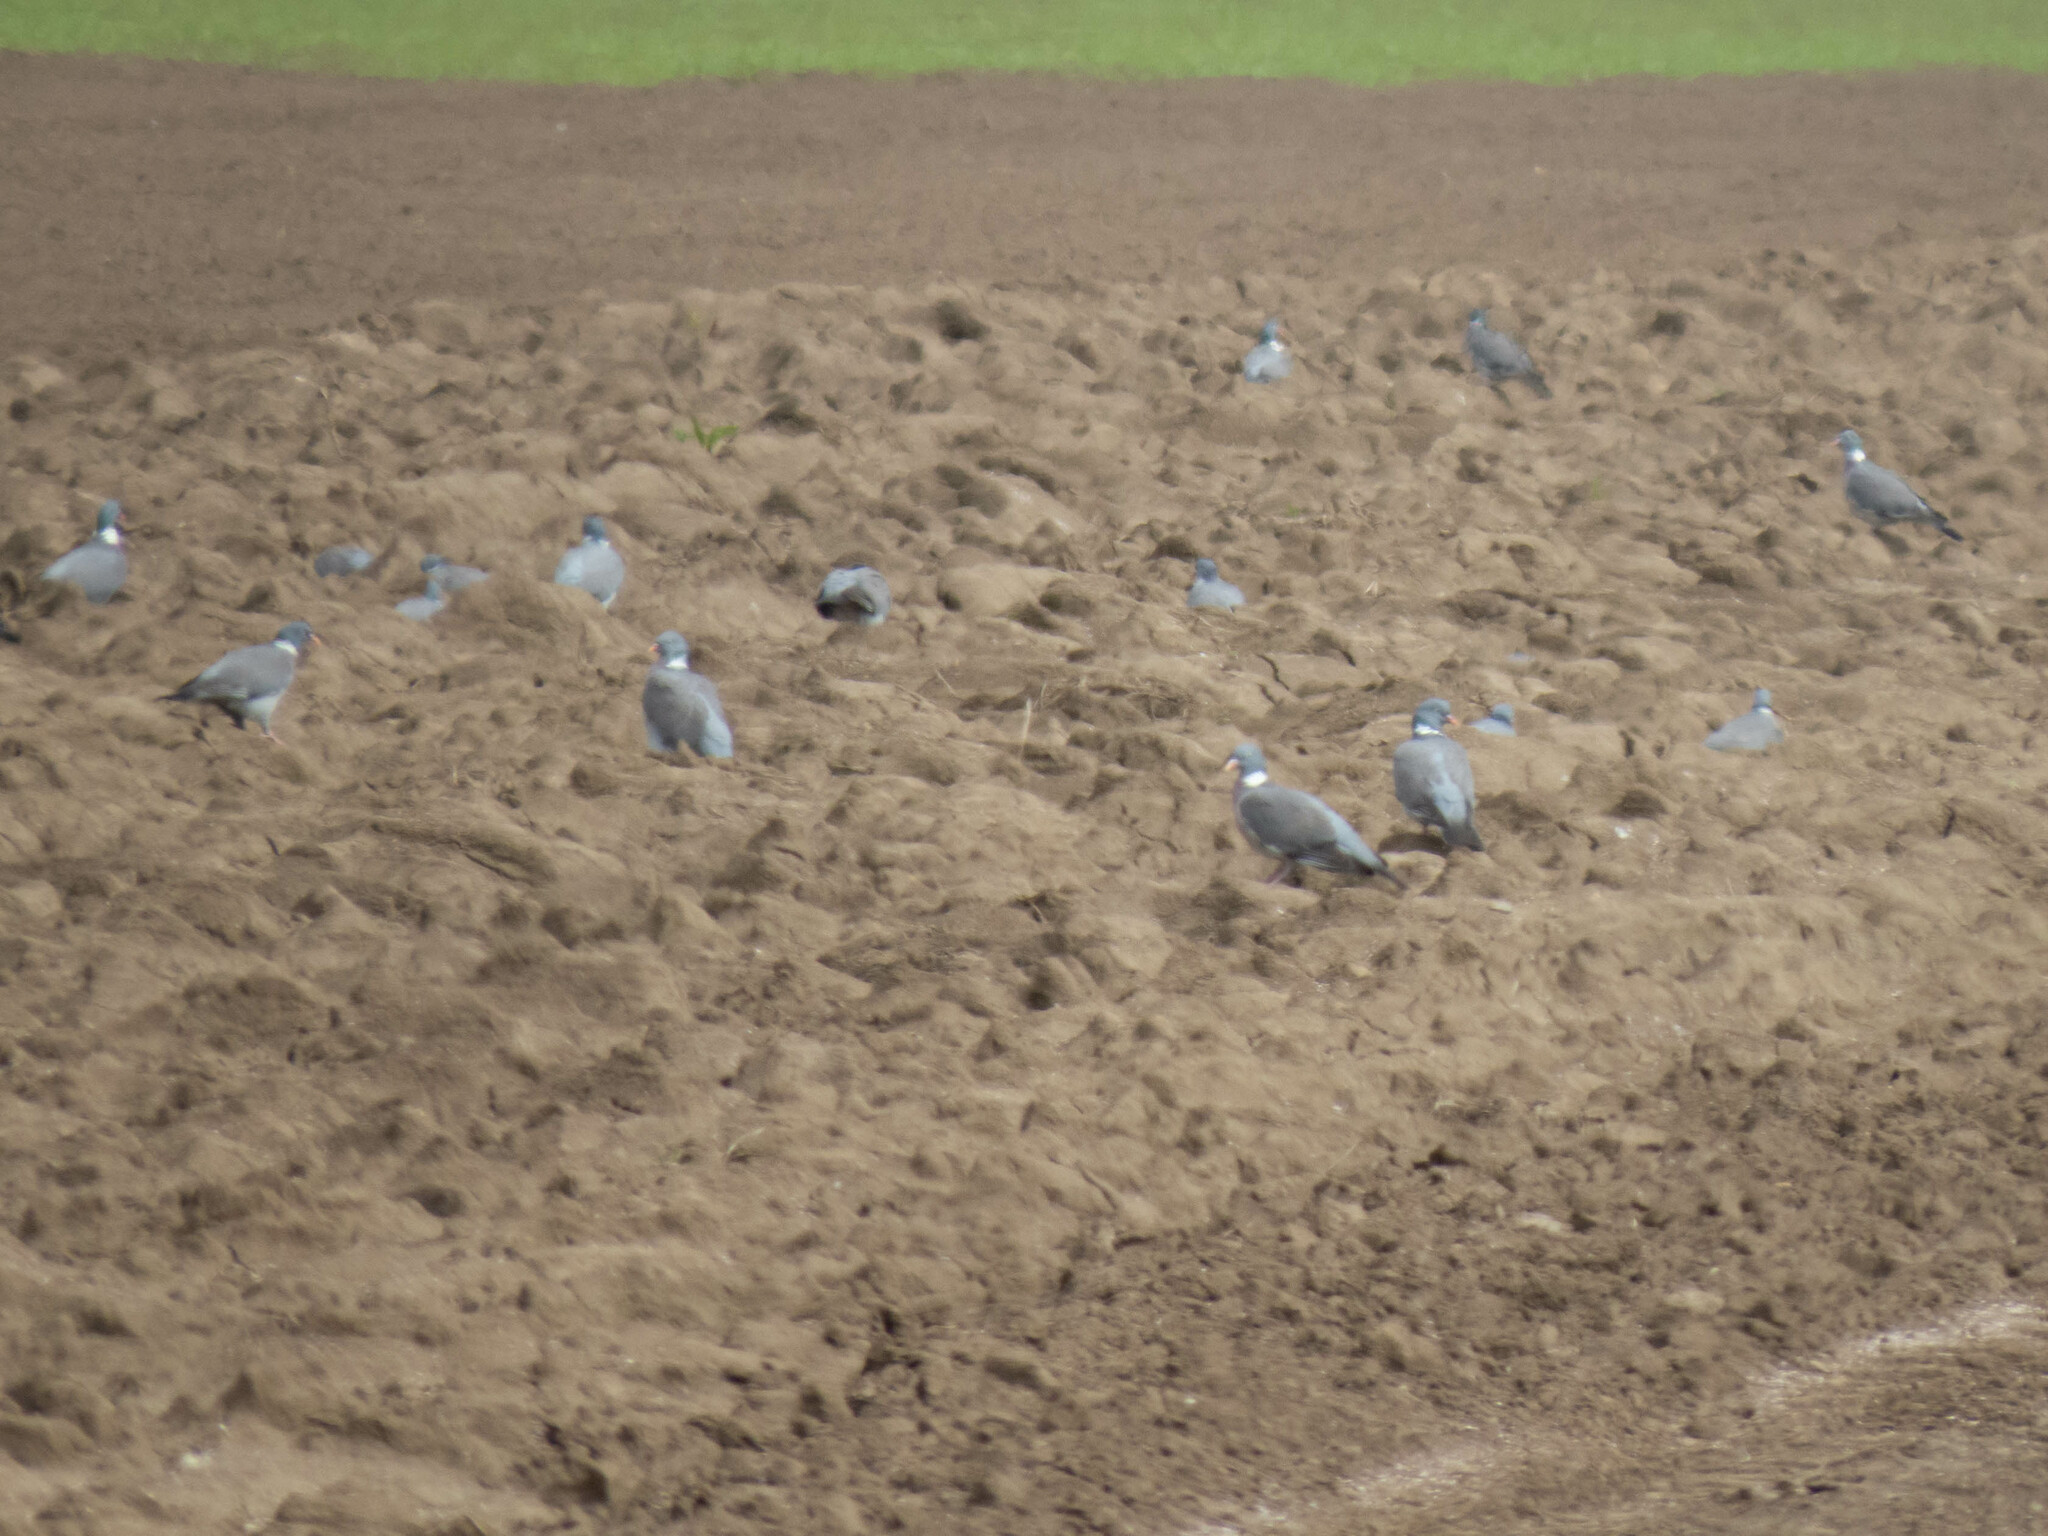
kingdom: Animalia
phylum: Chordata
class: Aves
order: Columbiformes
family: Columbidae
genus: Columba
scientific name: Columba palumbus
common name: Common wood pigeon
